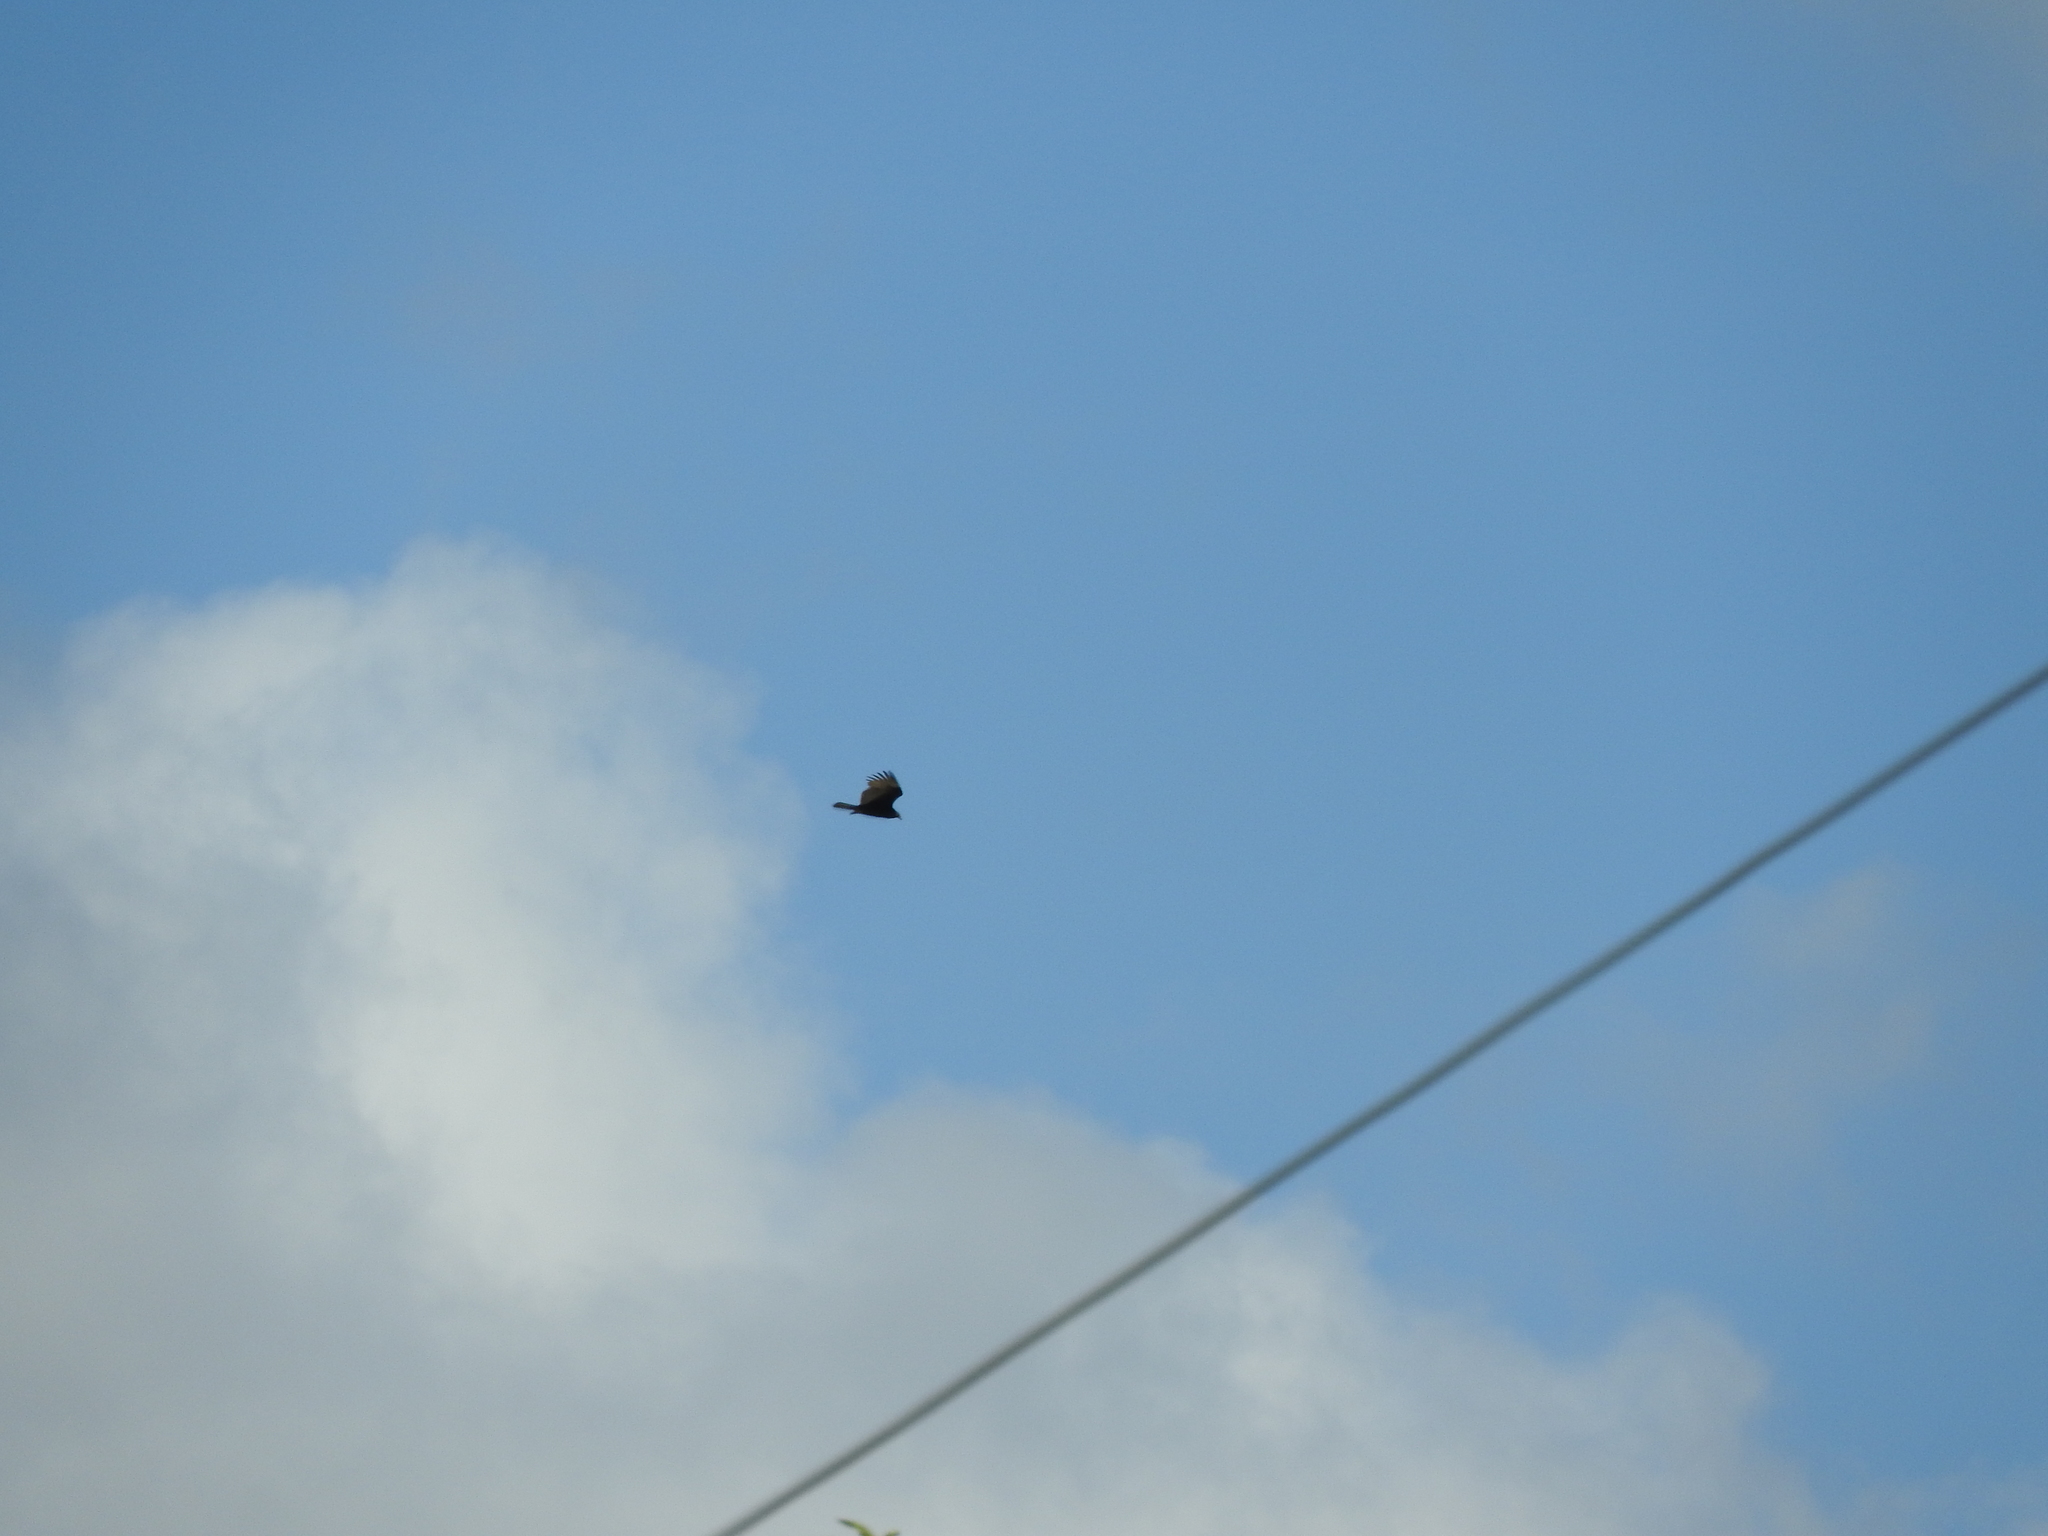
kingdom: Animalia
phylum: Chordata
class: Aves
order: Accipitriformes
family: Cathartidae
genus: Cathartes
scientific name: Cathartes aura
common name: Turkey vulture
